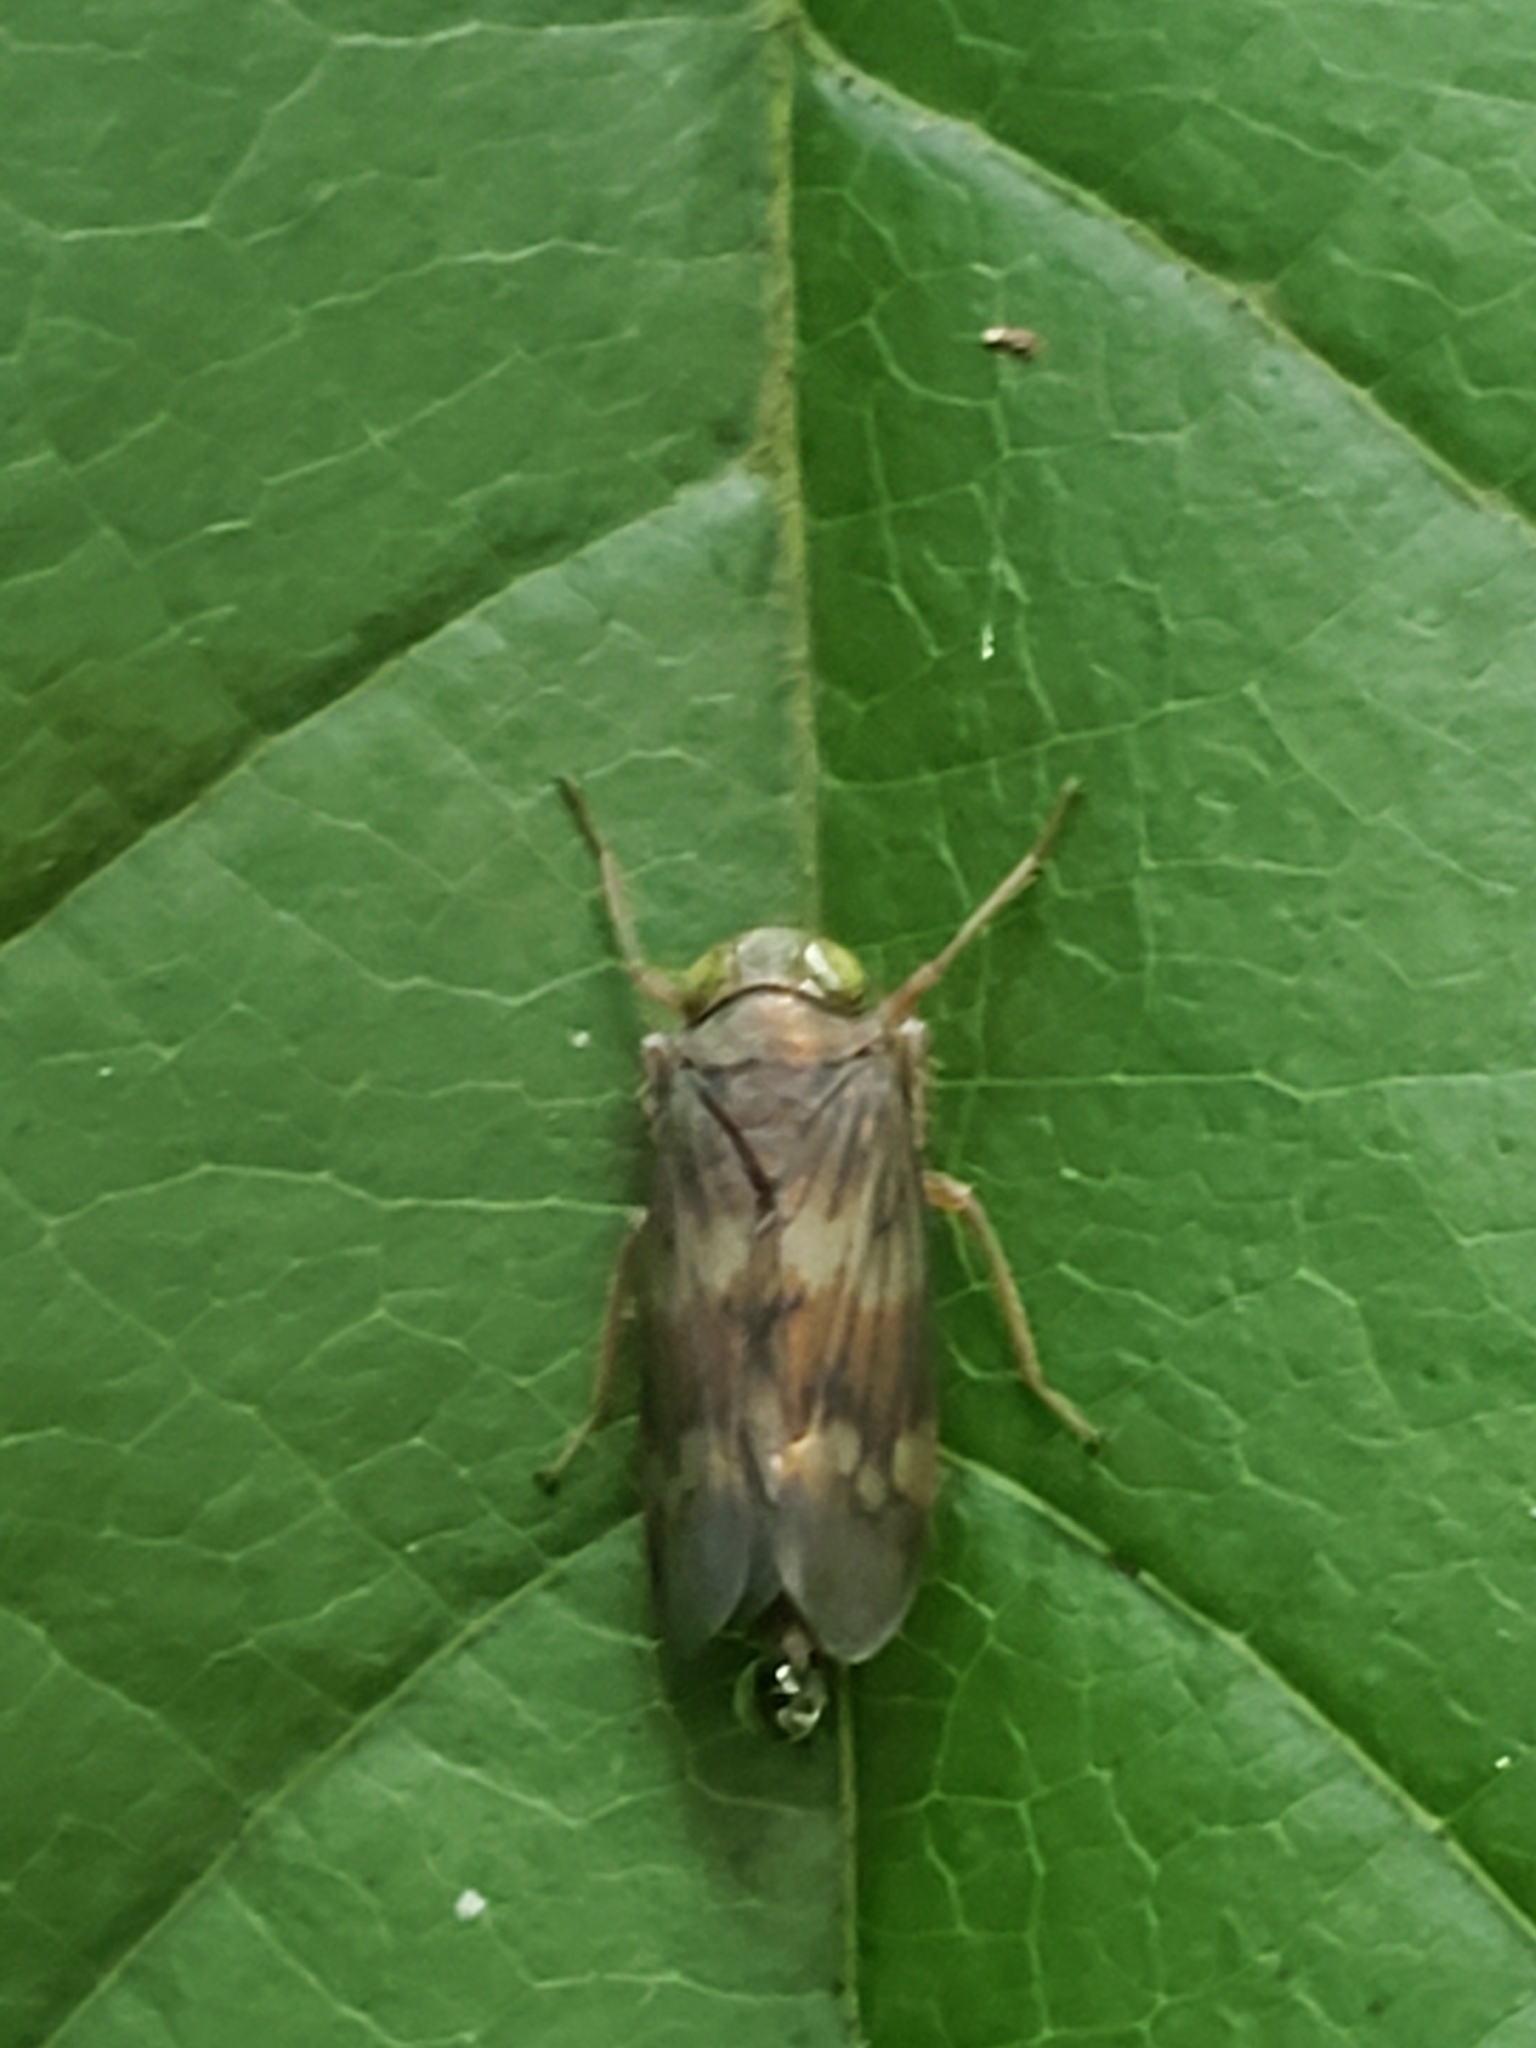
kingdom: Animalia
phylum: Arthropoda
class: Insecta
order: Hemiptera
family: Cicadellidae
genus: Jikradia
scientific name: Jikradia olitoria
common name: Coppery leafhopper
